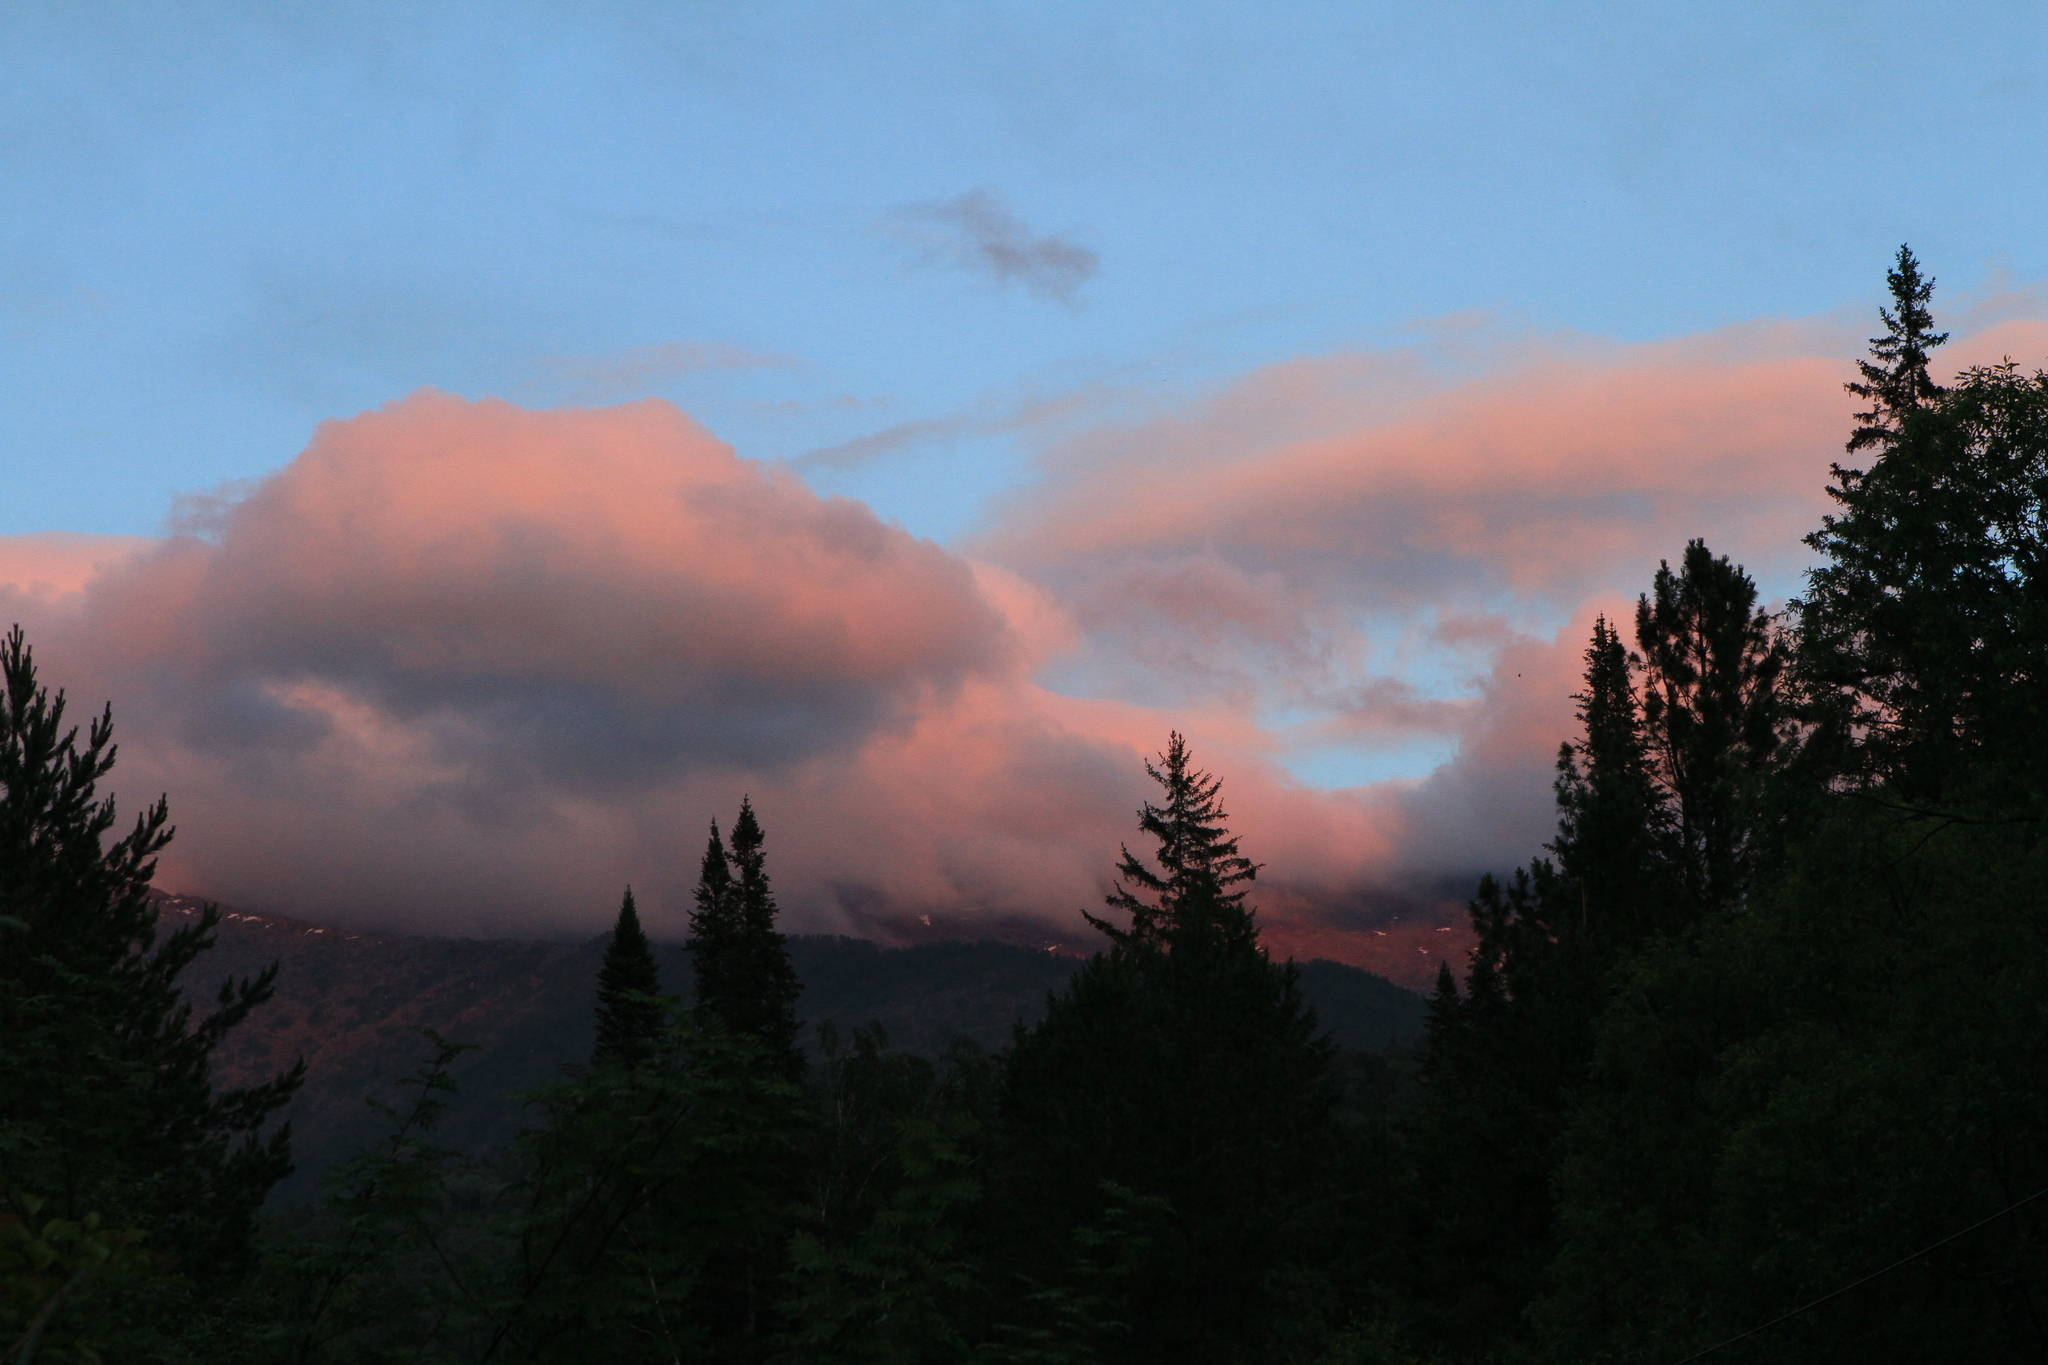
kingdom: Plantae
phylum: Tracheophyta
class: Pinopsida
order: Pinales
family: Pinaceae
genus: Picea
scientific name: Picea obovata
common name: Siberian spruce
